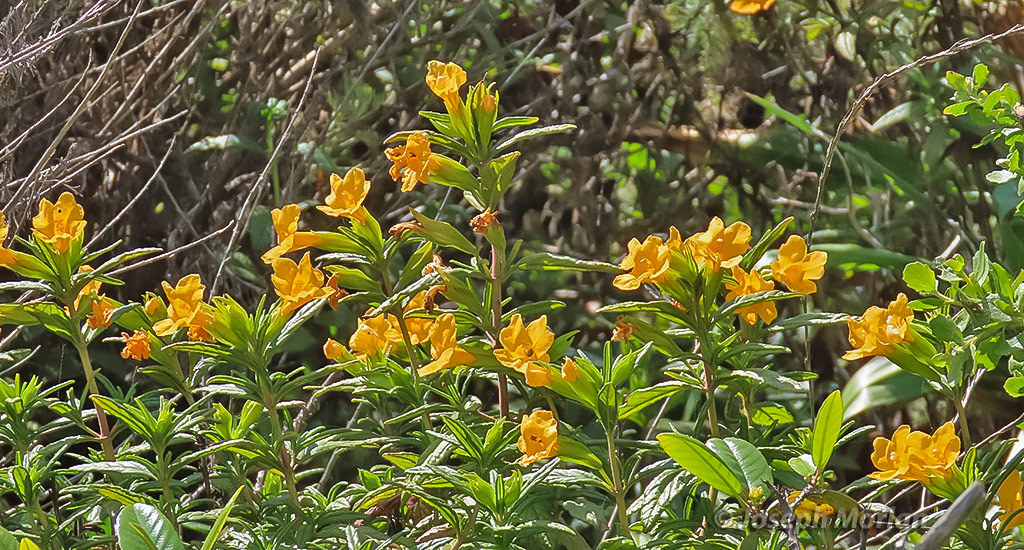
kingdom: Plantae
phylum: Tracheophyta
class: Magnoliopsida
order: Lamiales
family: Phrymaceae
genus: Diplacus
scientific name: Diplacus aurantiacus
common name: Bush monkey-flower
